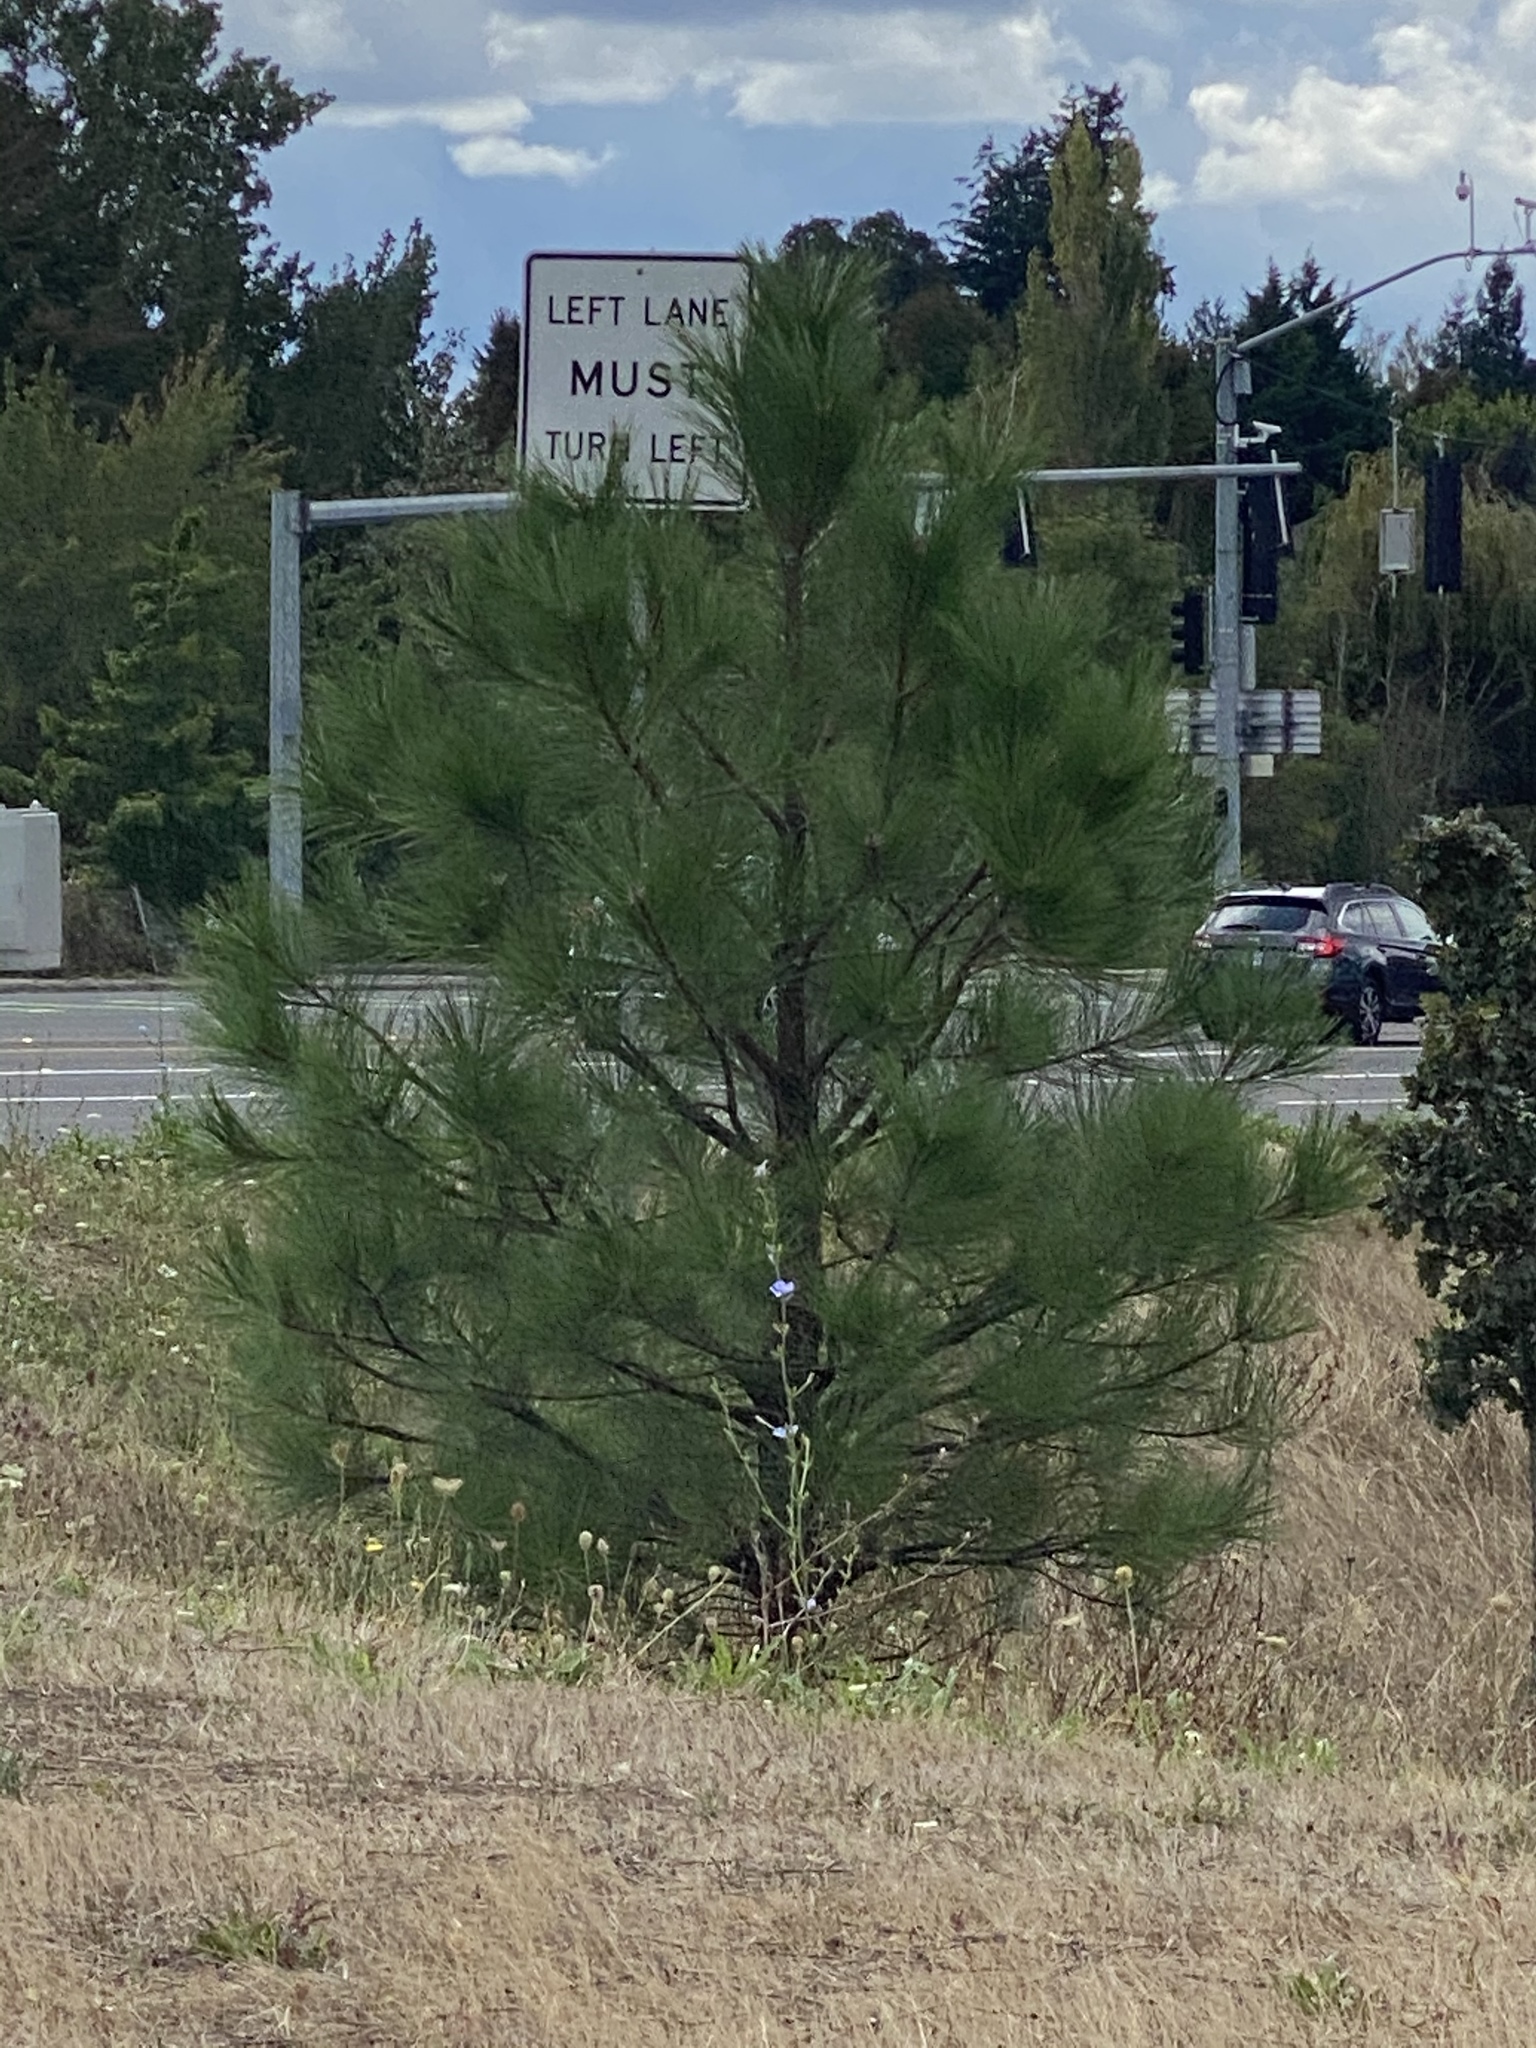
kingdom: Plantae
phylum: Tracheophyta
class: Pinopsida
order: Pinales
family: Pinaceae
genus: Pinus
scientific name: Pinus ponderosa
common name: Western yellow-pine
